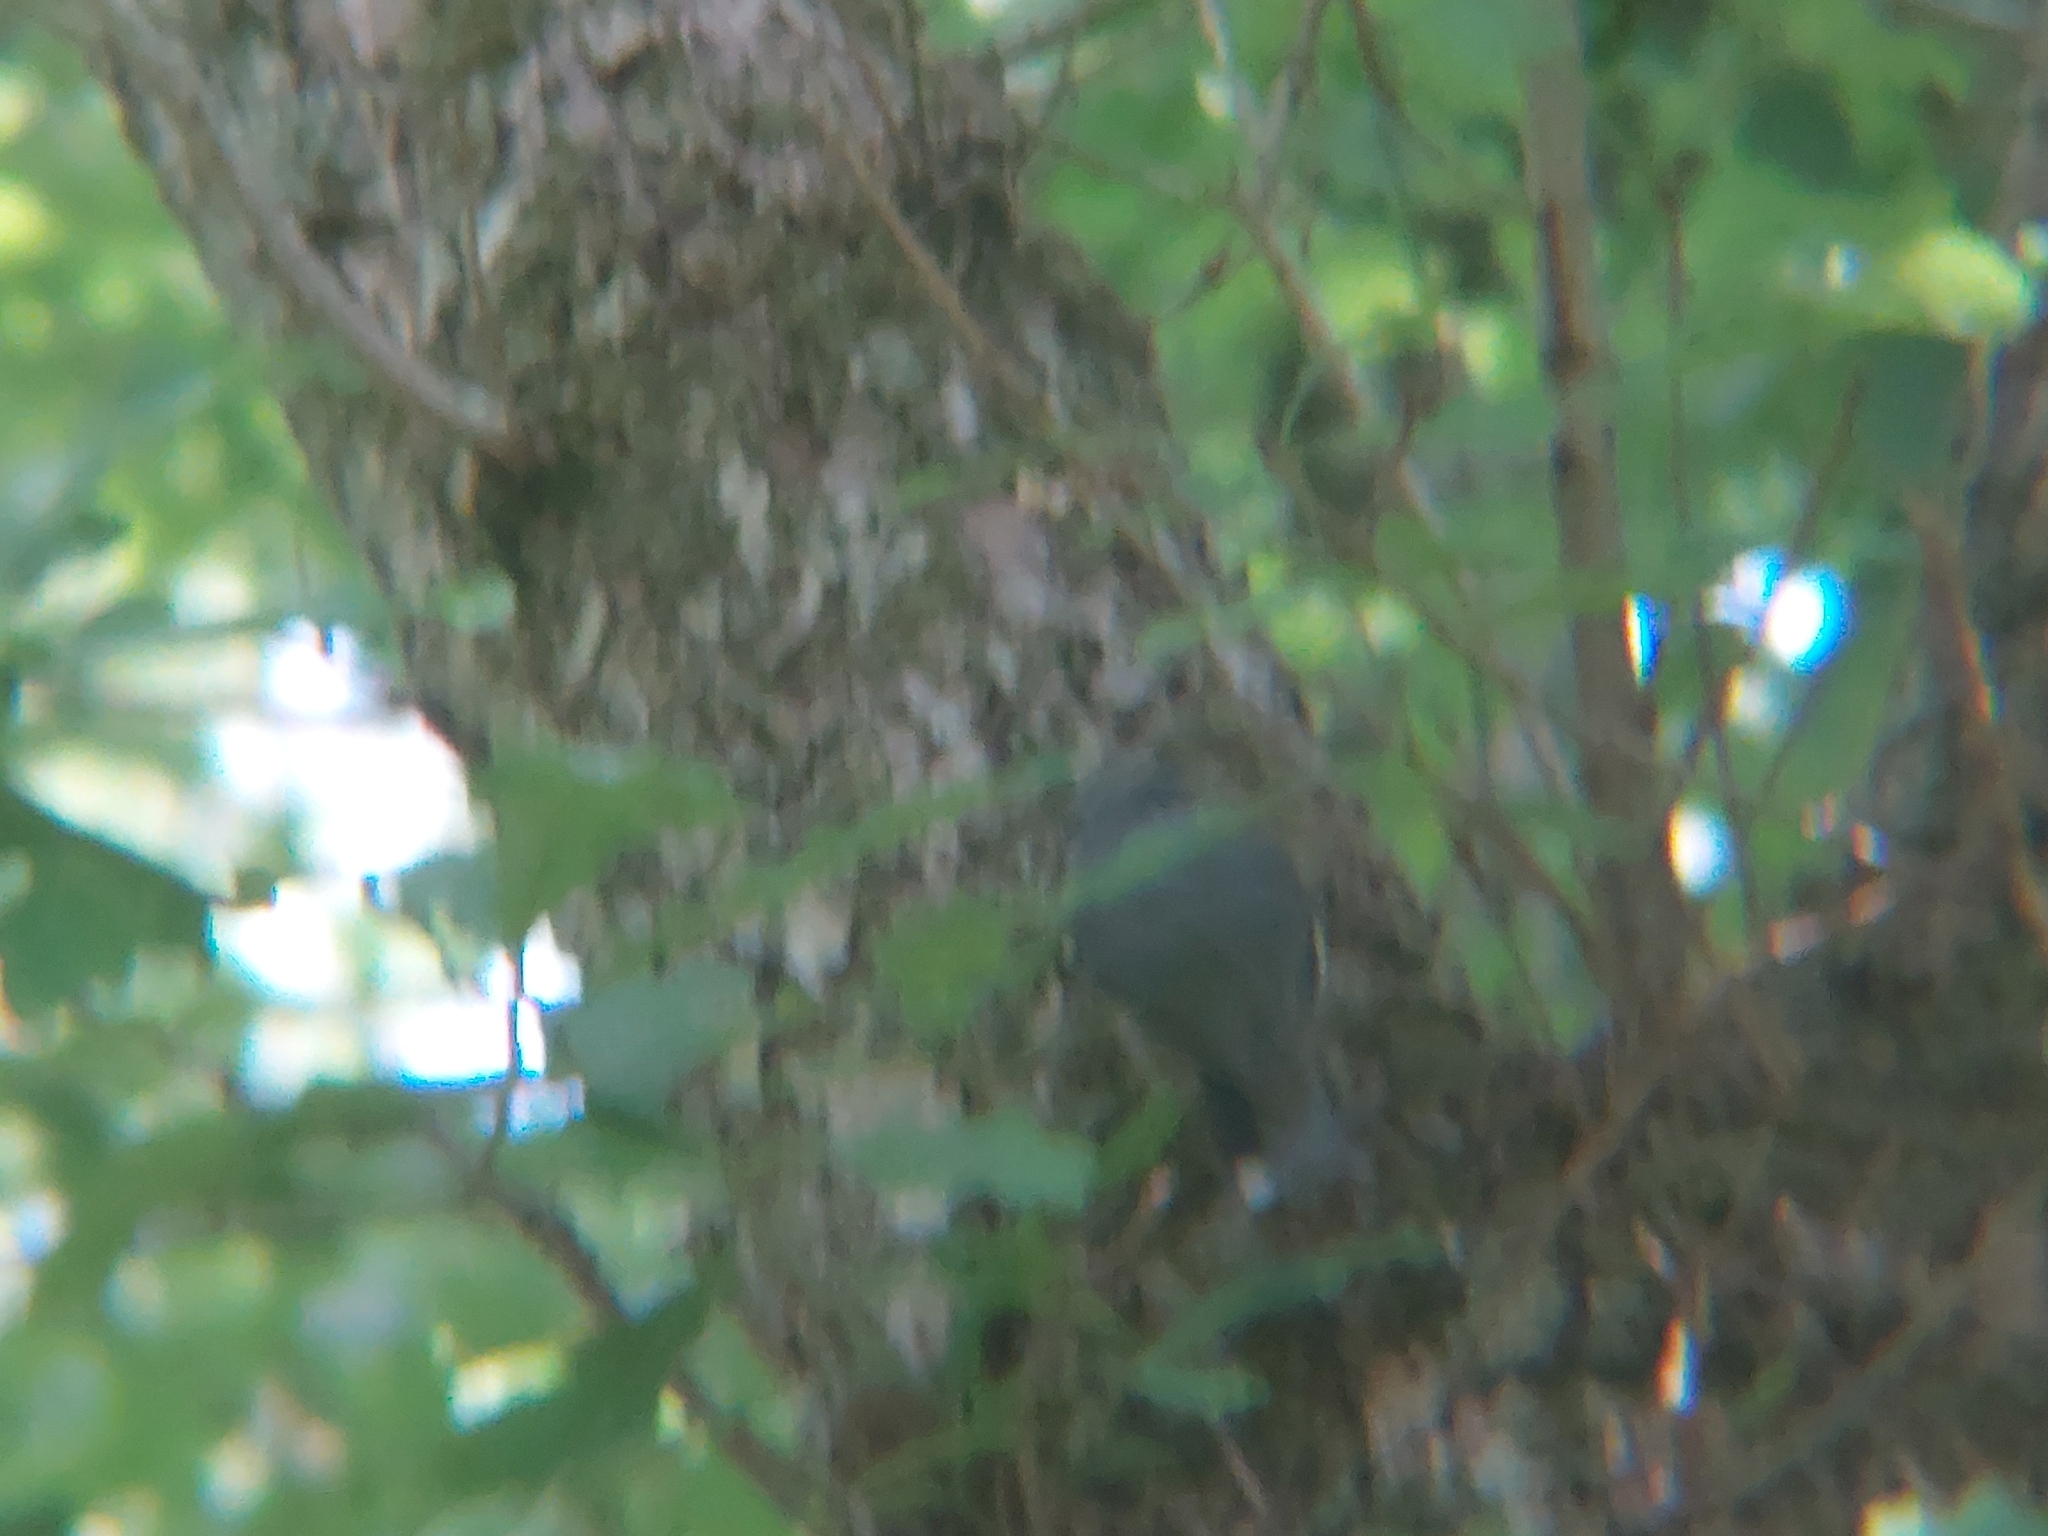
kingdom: Animalia
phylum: Chordata
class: Aves
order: Passeriformes
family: Sittidae
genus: Sitta
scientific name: Sitta europaea
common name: Eurasian nuthatch
